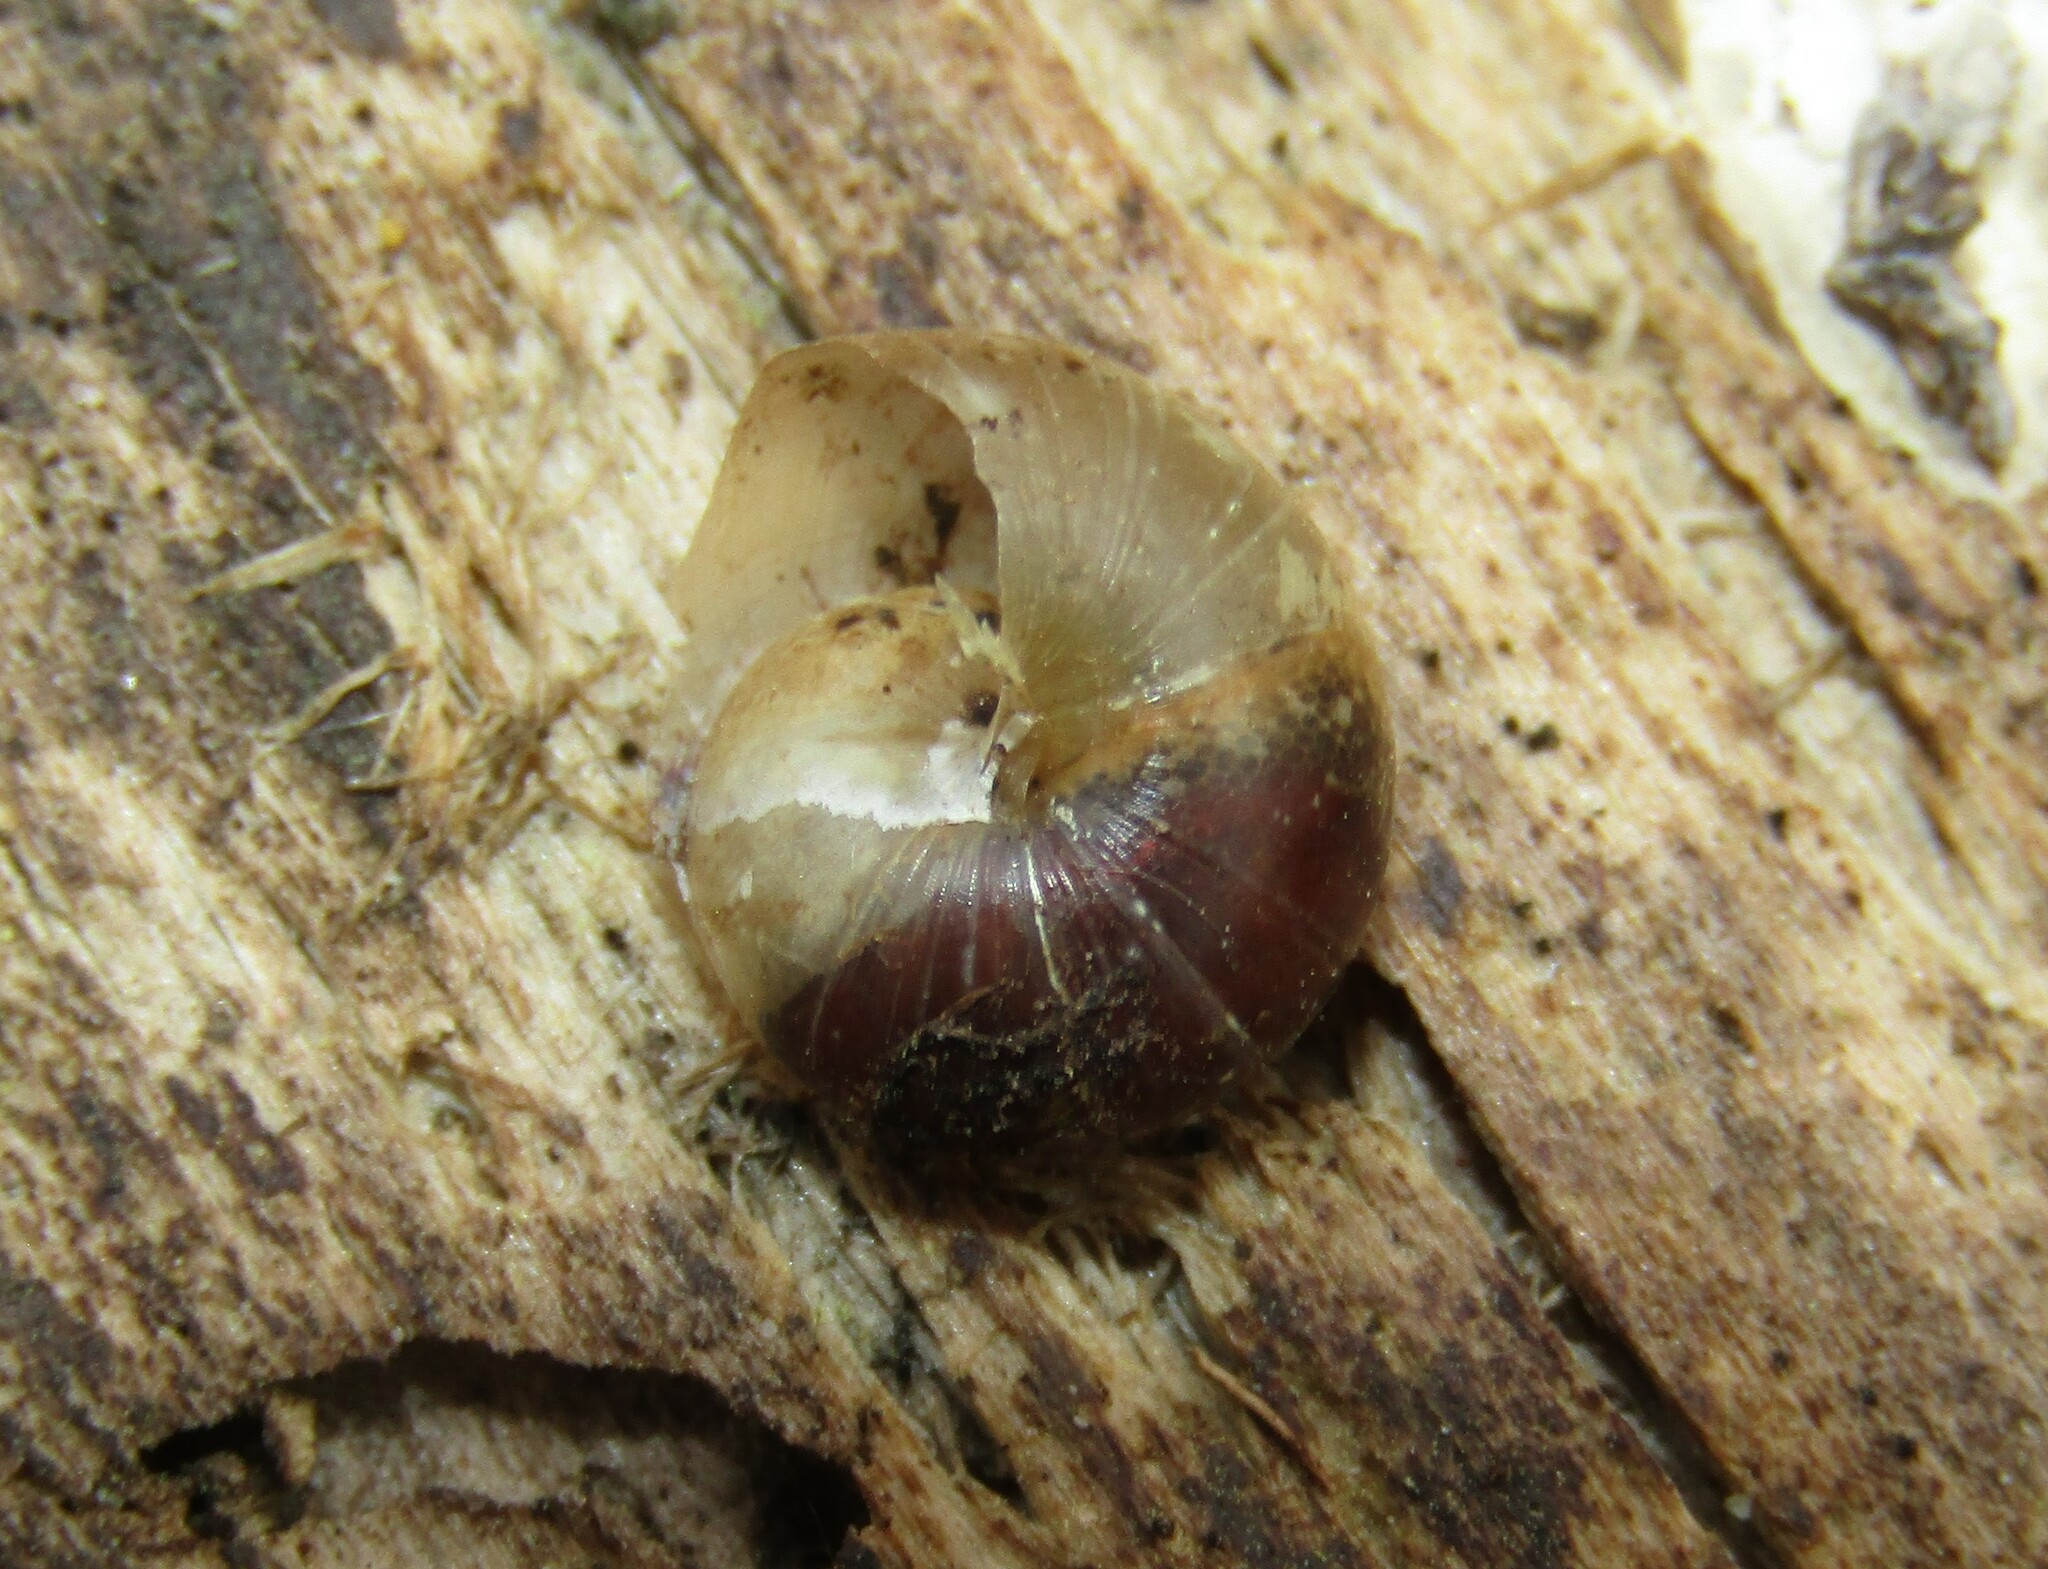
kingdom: Animalia
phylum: Mollusca
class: Gastropoda
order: Stylommatophora
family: Camaenidae
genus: Fruticicola
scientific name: Fruticicola fruticum
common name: Bush snail
